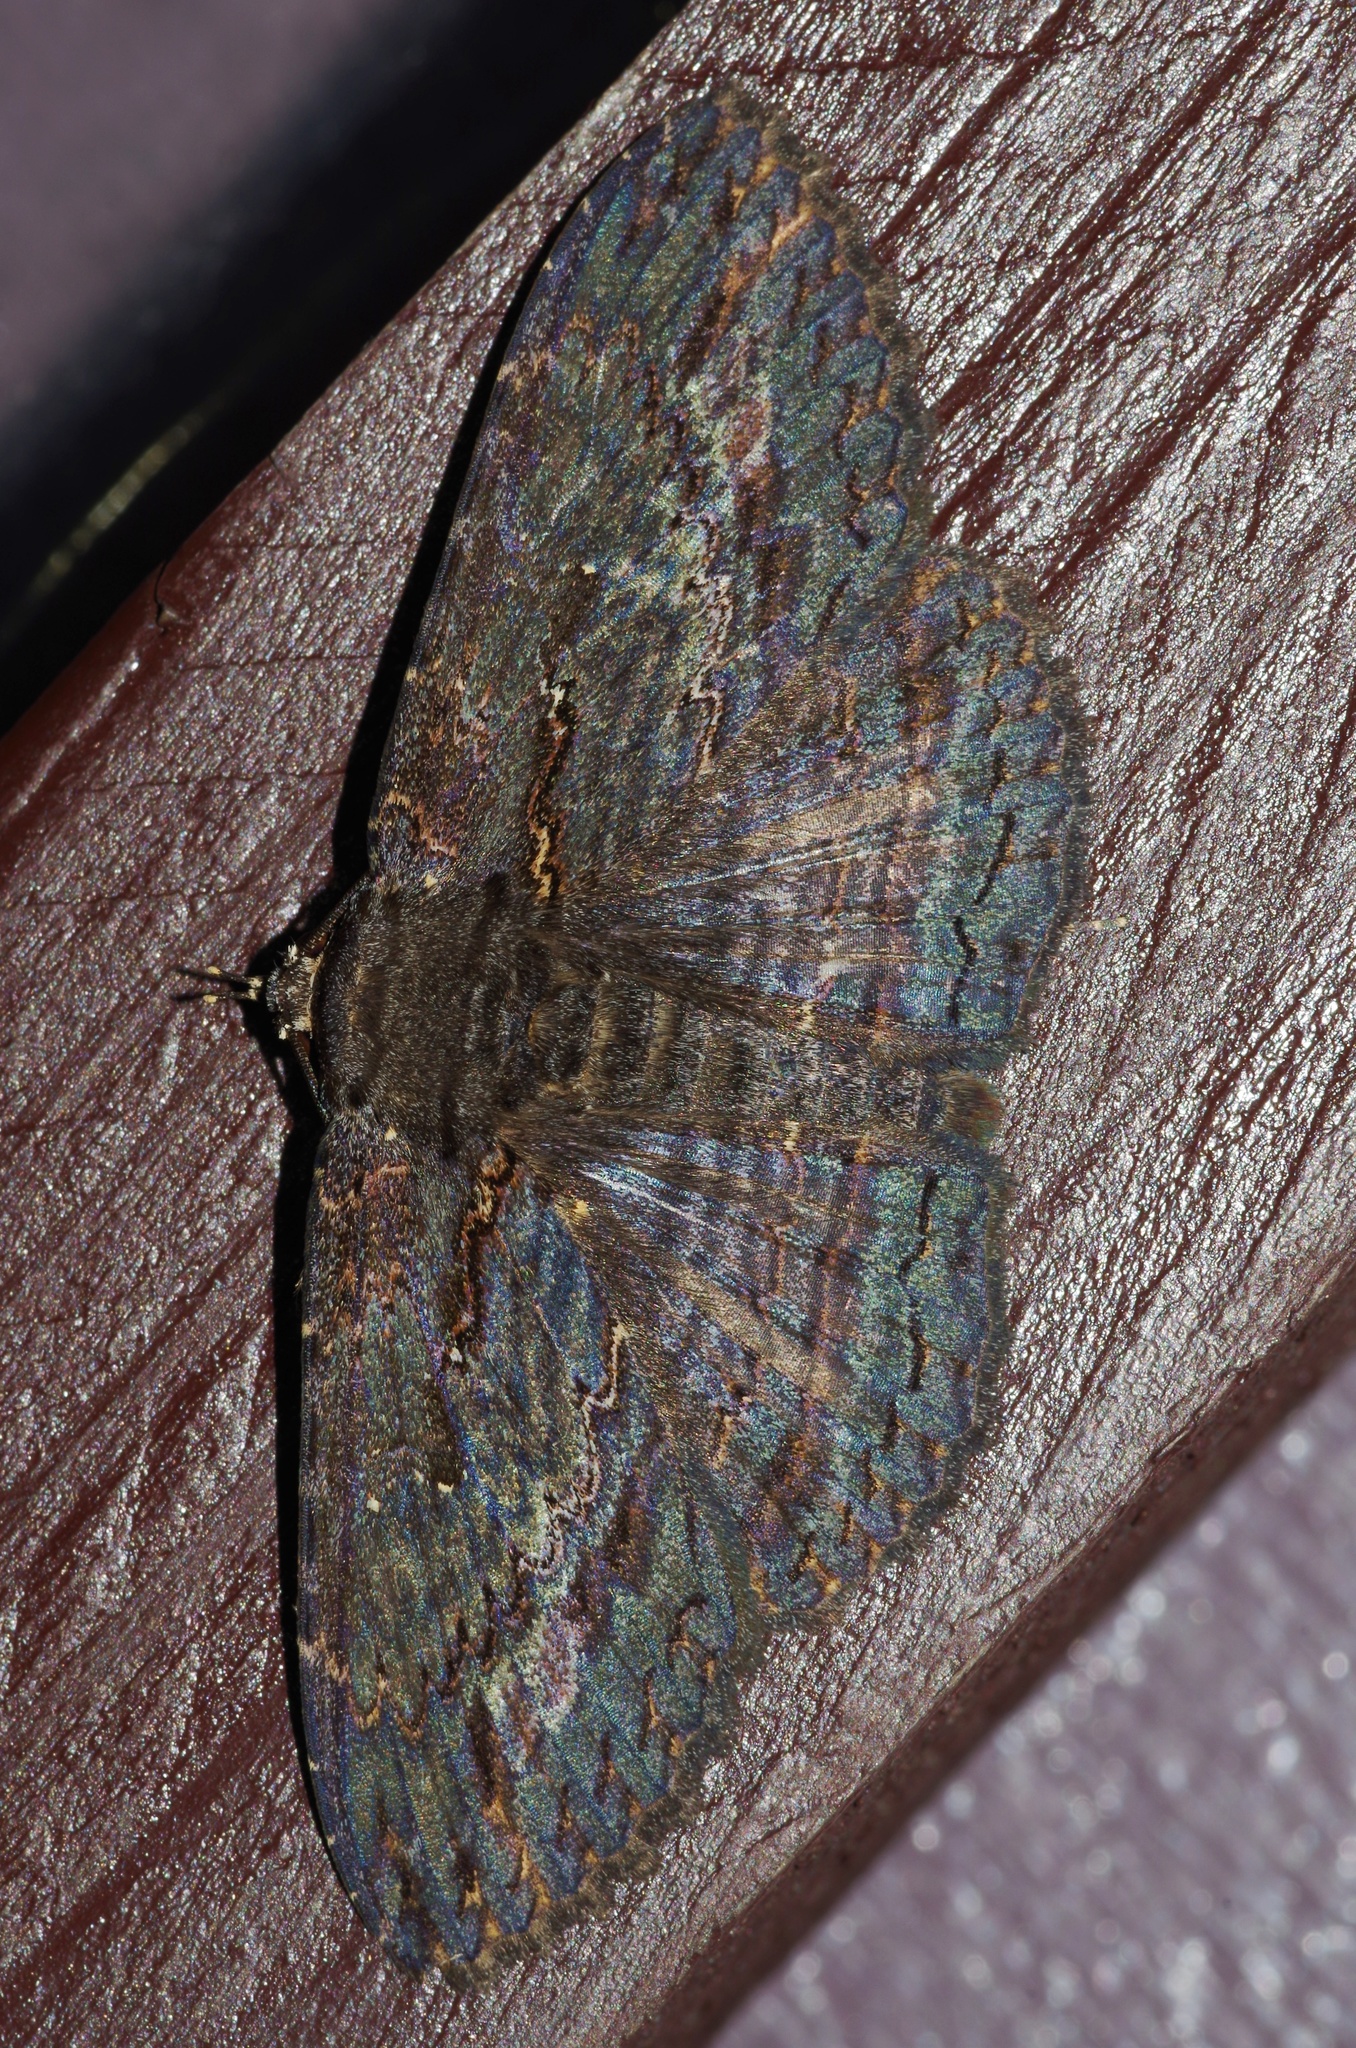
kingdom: Animalia
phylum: Arthropoda
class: Insecta
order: Lepidoptera
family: Erebidae
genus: Anisoneura
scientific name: Anisoneura salebrosa
